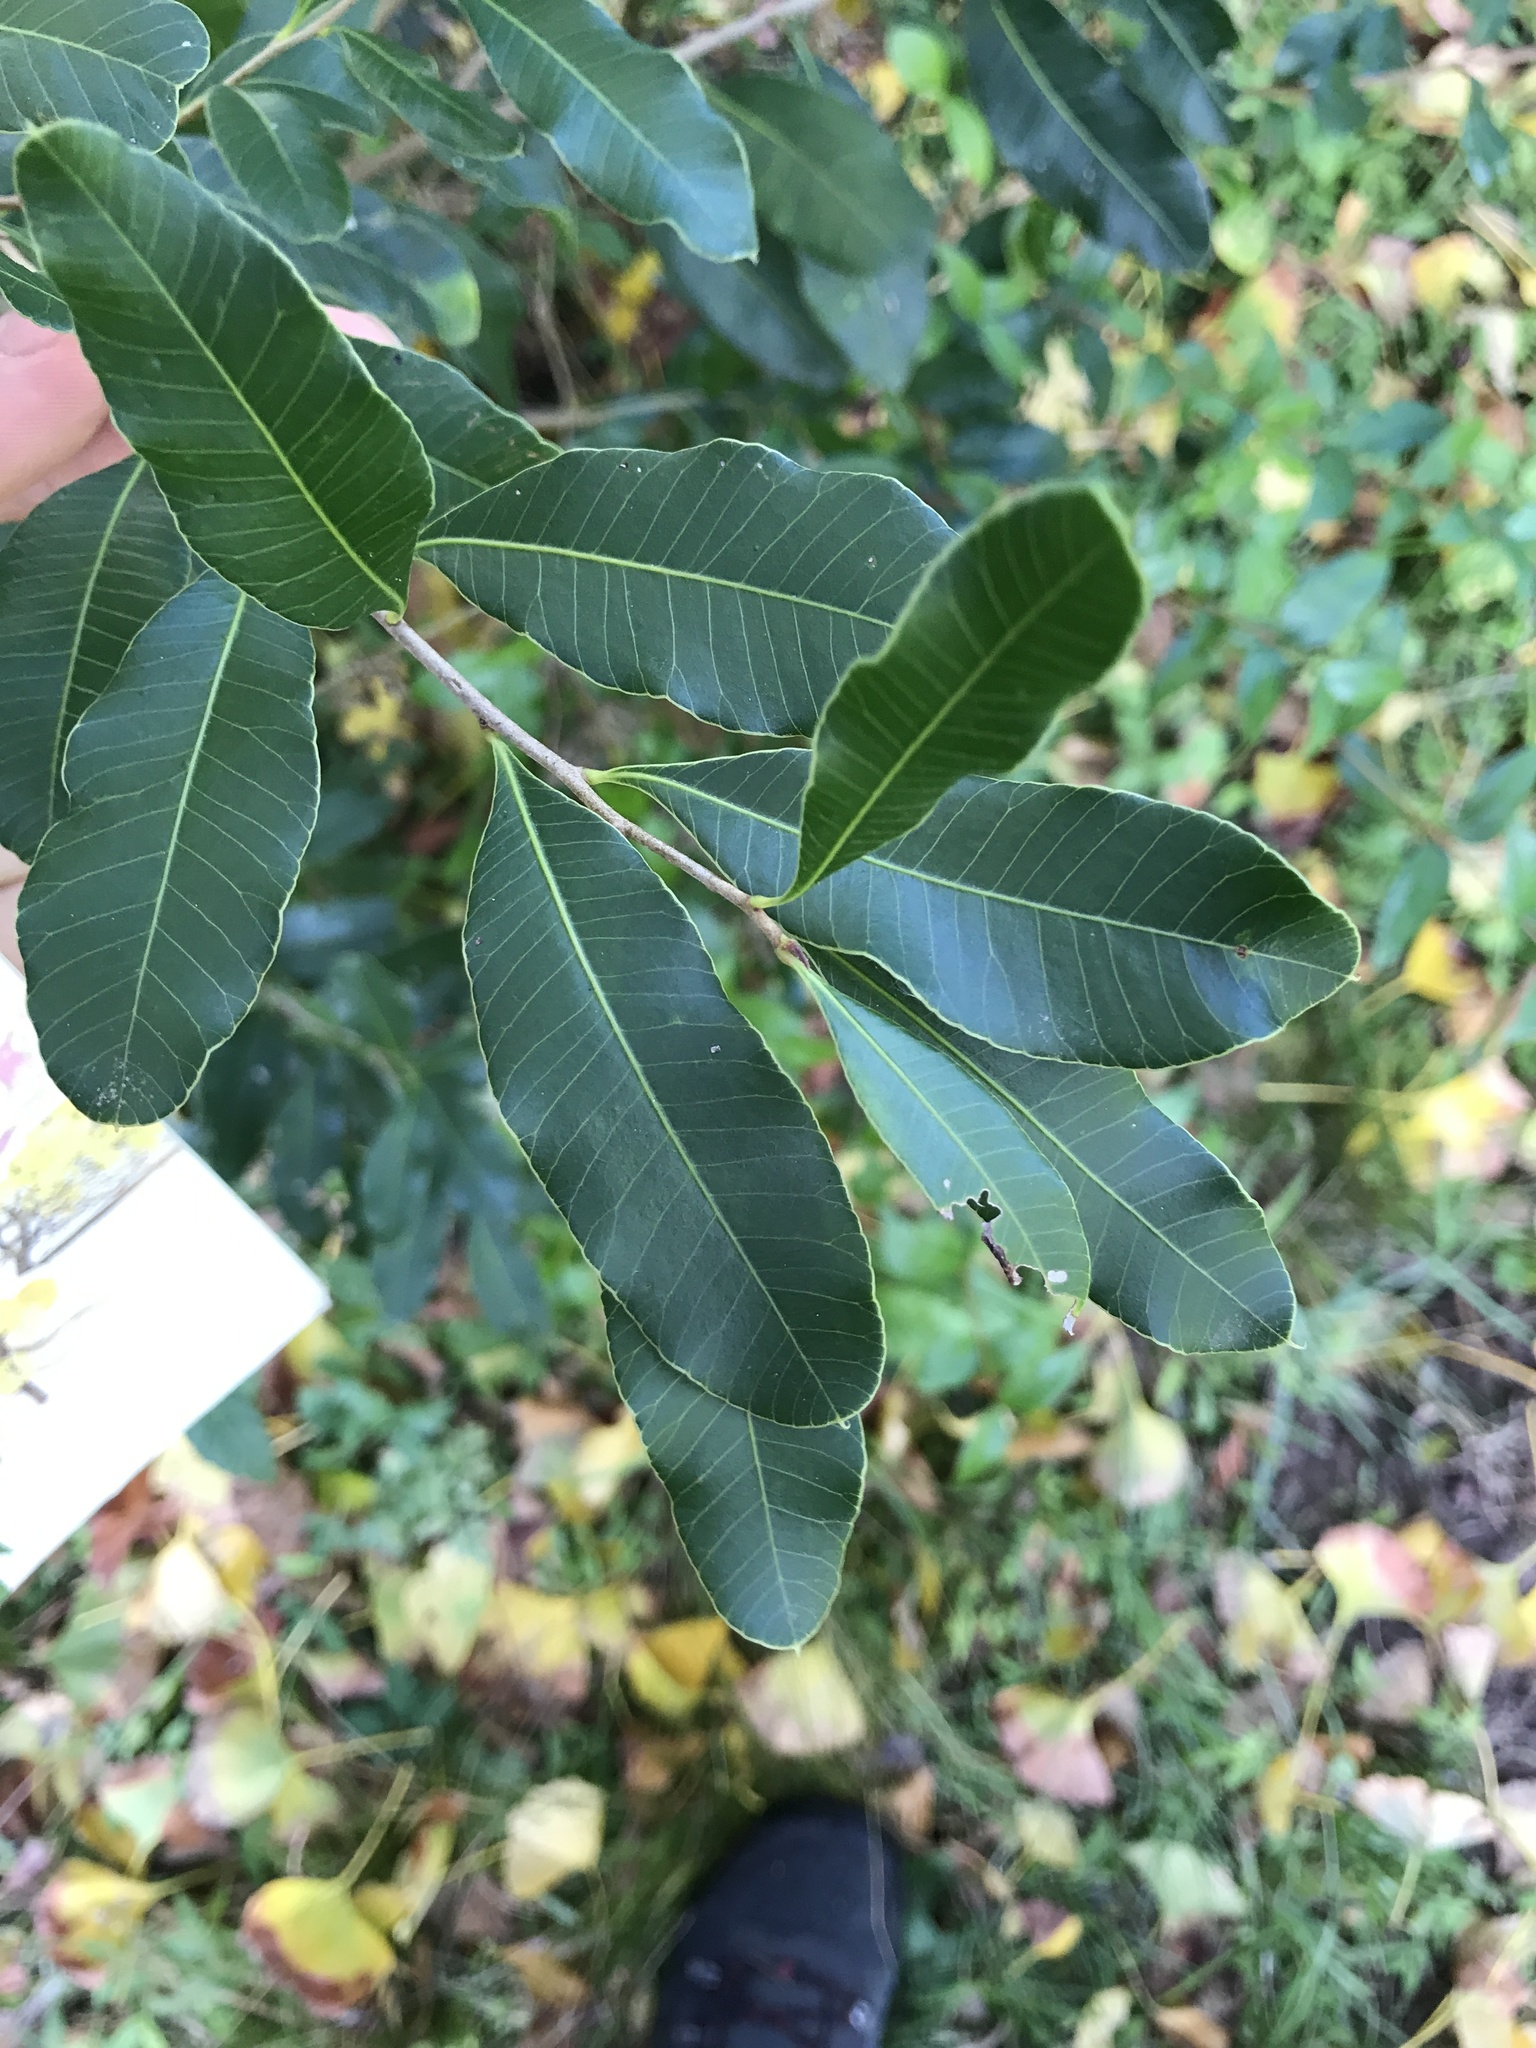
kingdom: Plantae
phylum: Tracheophyta
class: Magnoliopsida
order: Sapindales
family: Anacardiaceae
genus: Lithraea
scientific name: Lithraea brasiliensis
